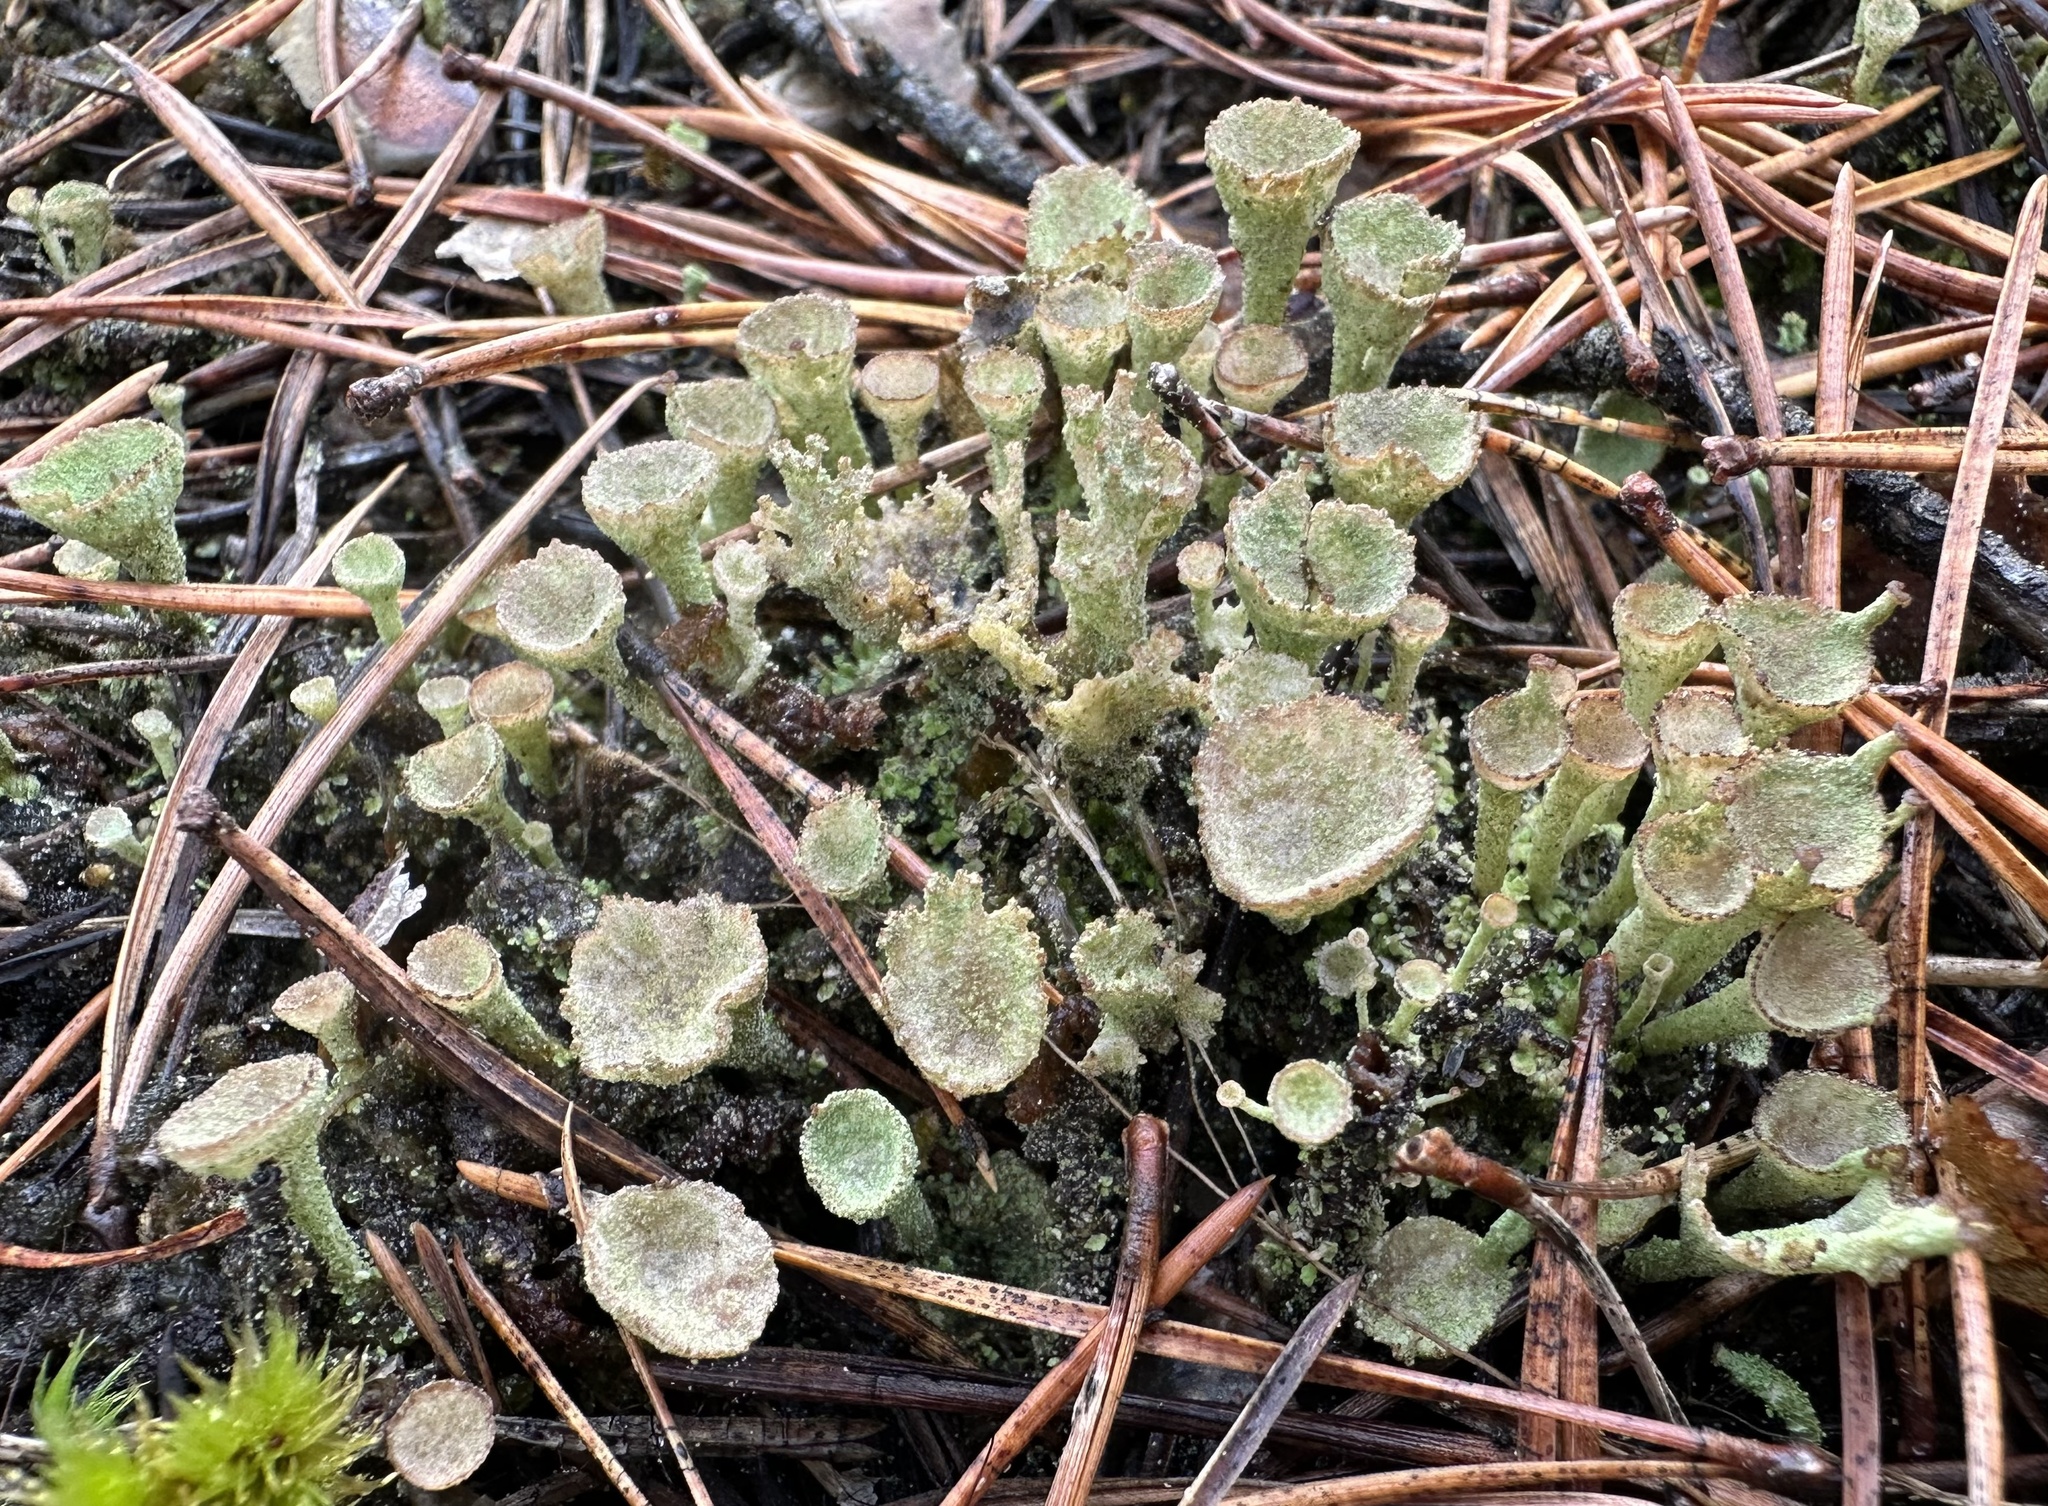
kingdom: Fungi
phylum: Ascomycota
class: Lecanoromycetes
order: Lecanorales
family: Cladoniaceae
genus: Cladonia
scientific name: Cladonia
